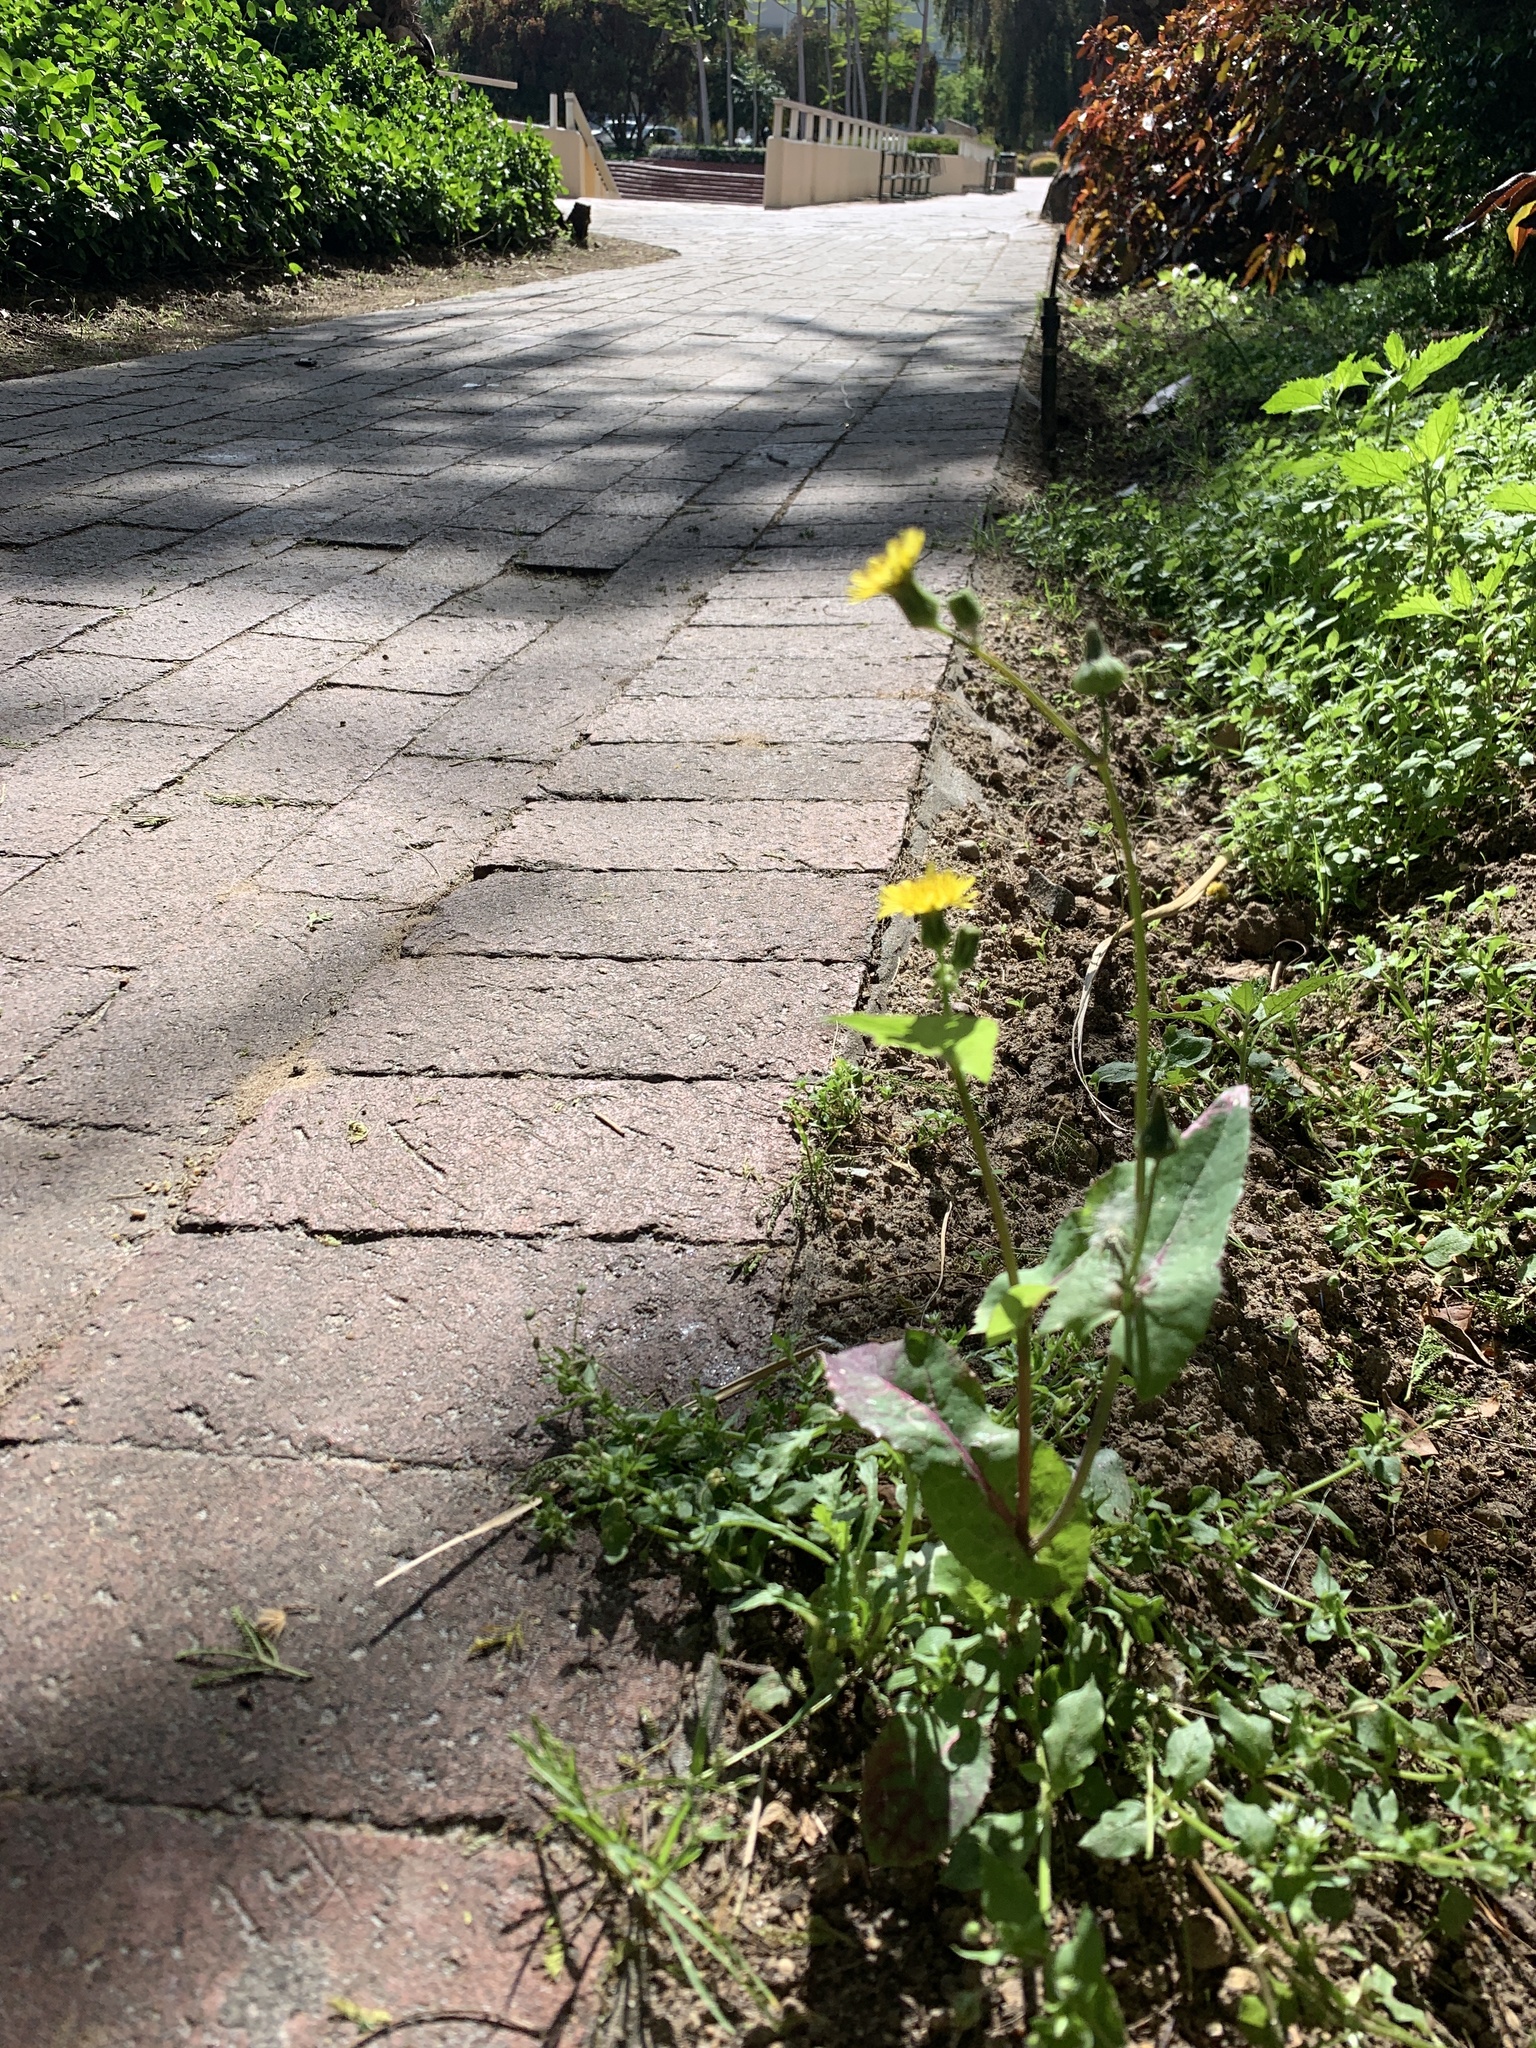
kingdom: Plantae
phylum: Tracheophyta
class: Magnoliopsida
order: Asterales
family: Asteraceae
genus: Sonchus
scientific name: Sonchus oleraceus
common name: Common sowthistle
